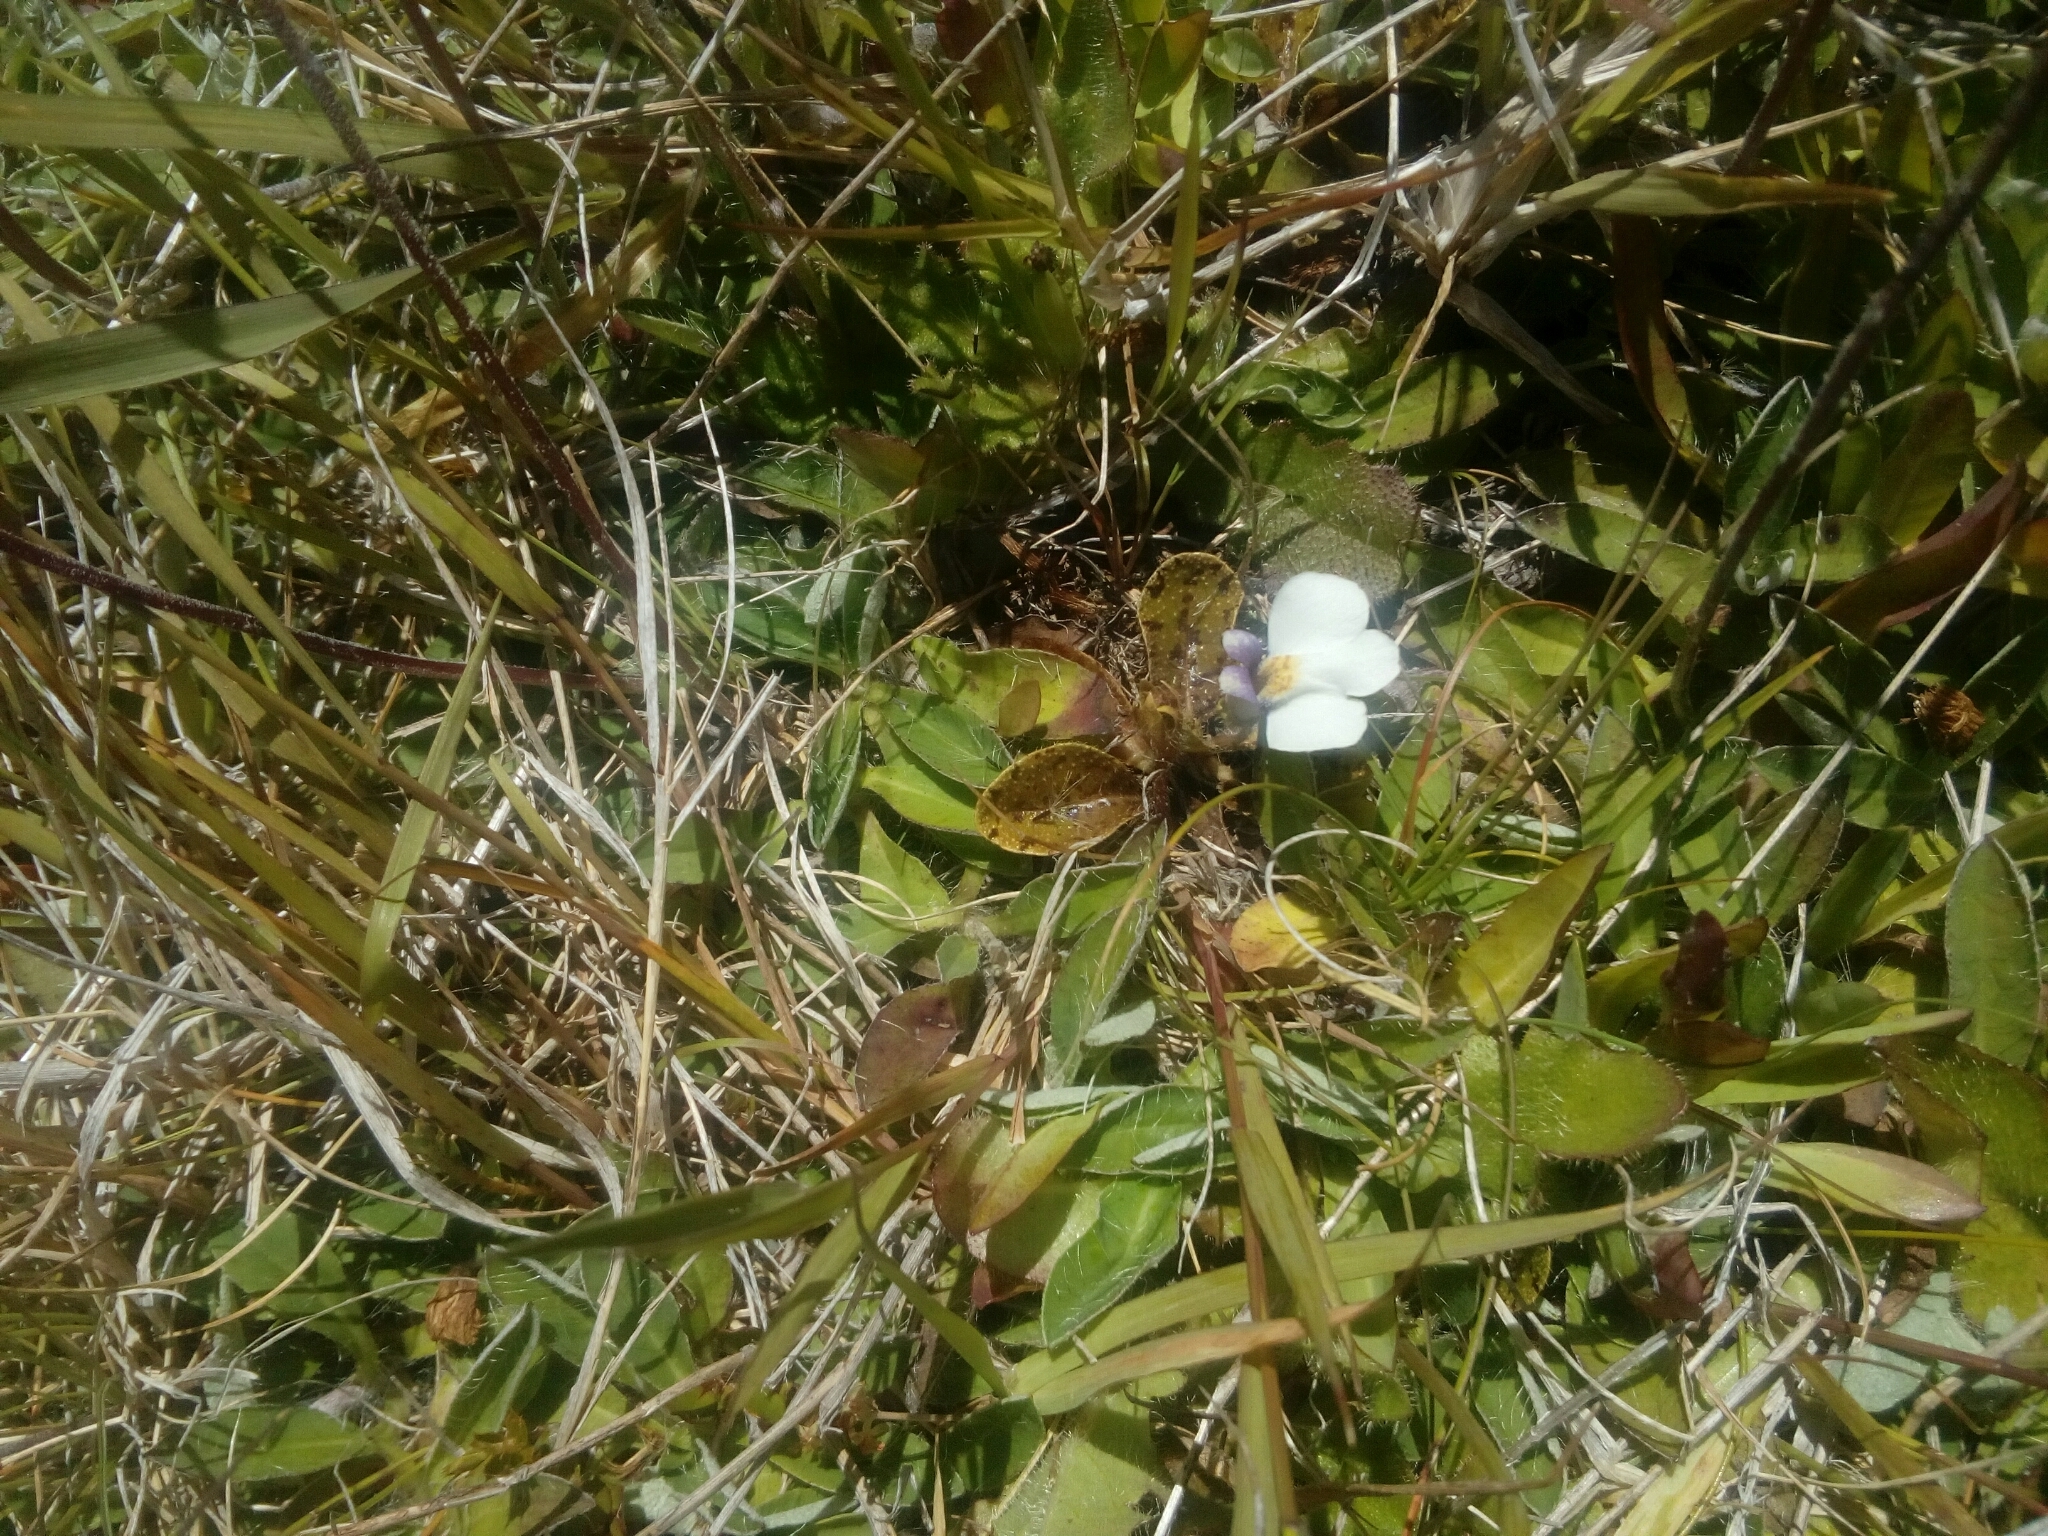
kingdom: Plantae
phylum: Tracheophyta
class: Magnoliopsida
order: Lamiales
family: Mazaceae
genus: Mazus
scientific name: Mazus radicans
